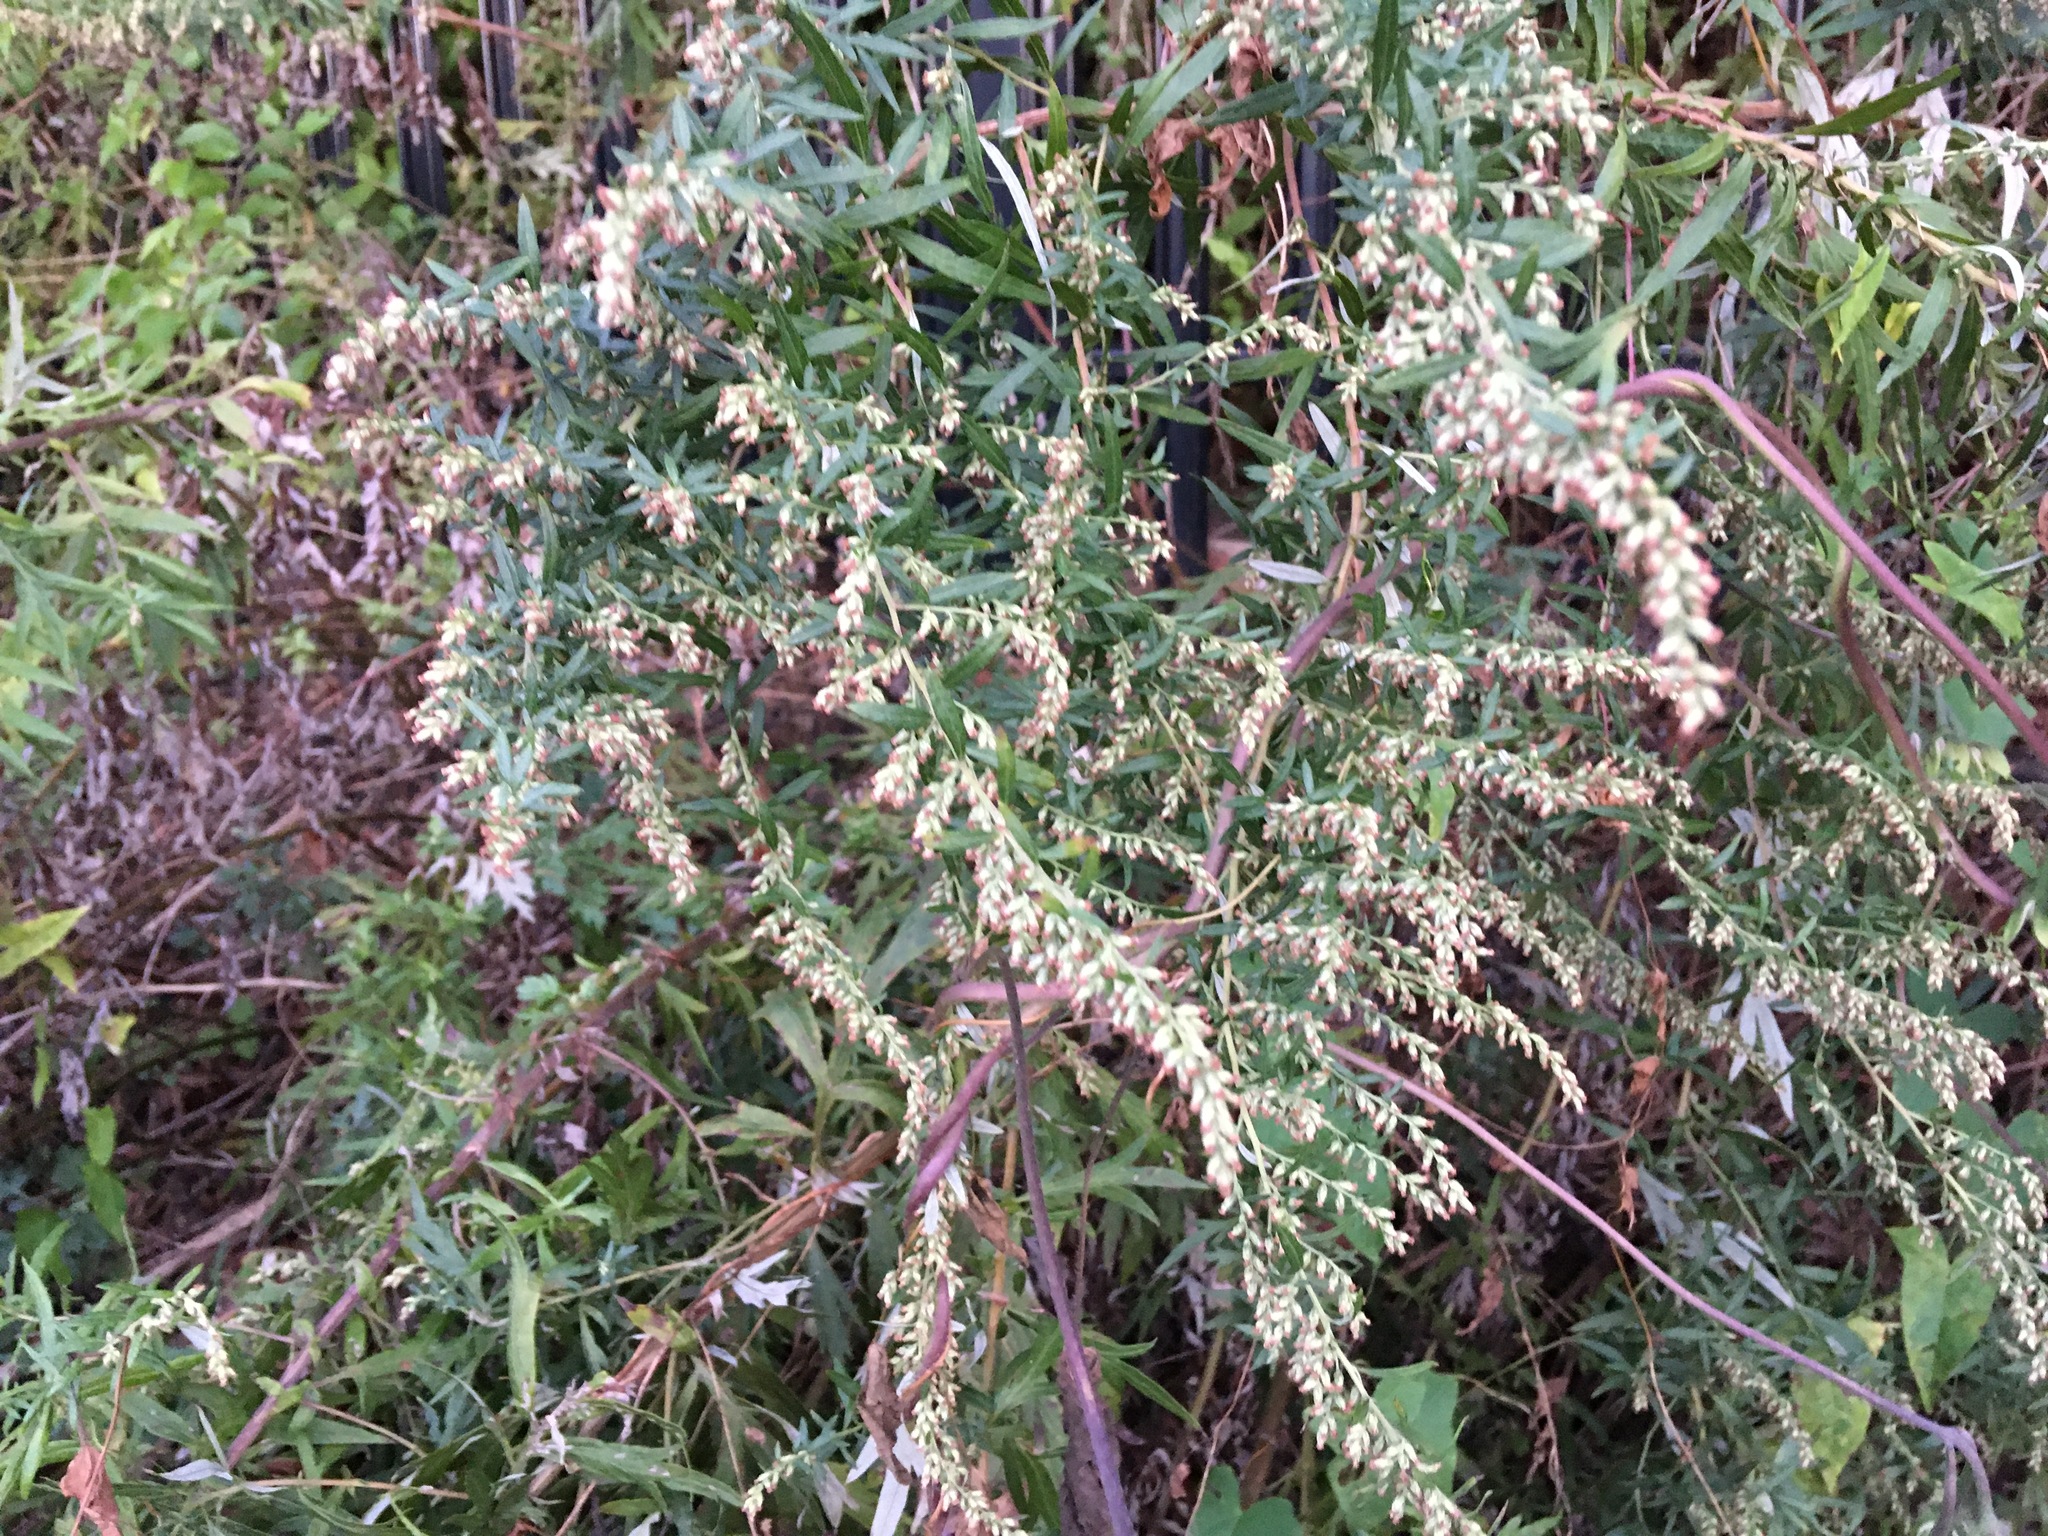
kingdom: Plantae
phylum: Tracheophyta
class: Magnoliopsida
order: Asterales
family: Asteraceae
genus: Artemisia
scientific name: Artemisia vulgaris
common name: Mugwort
